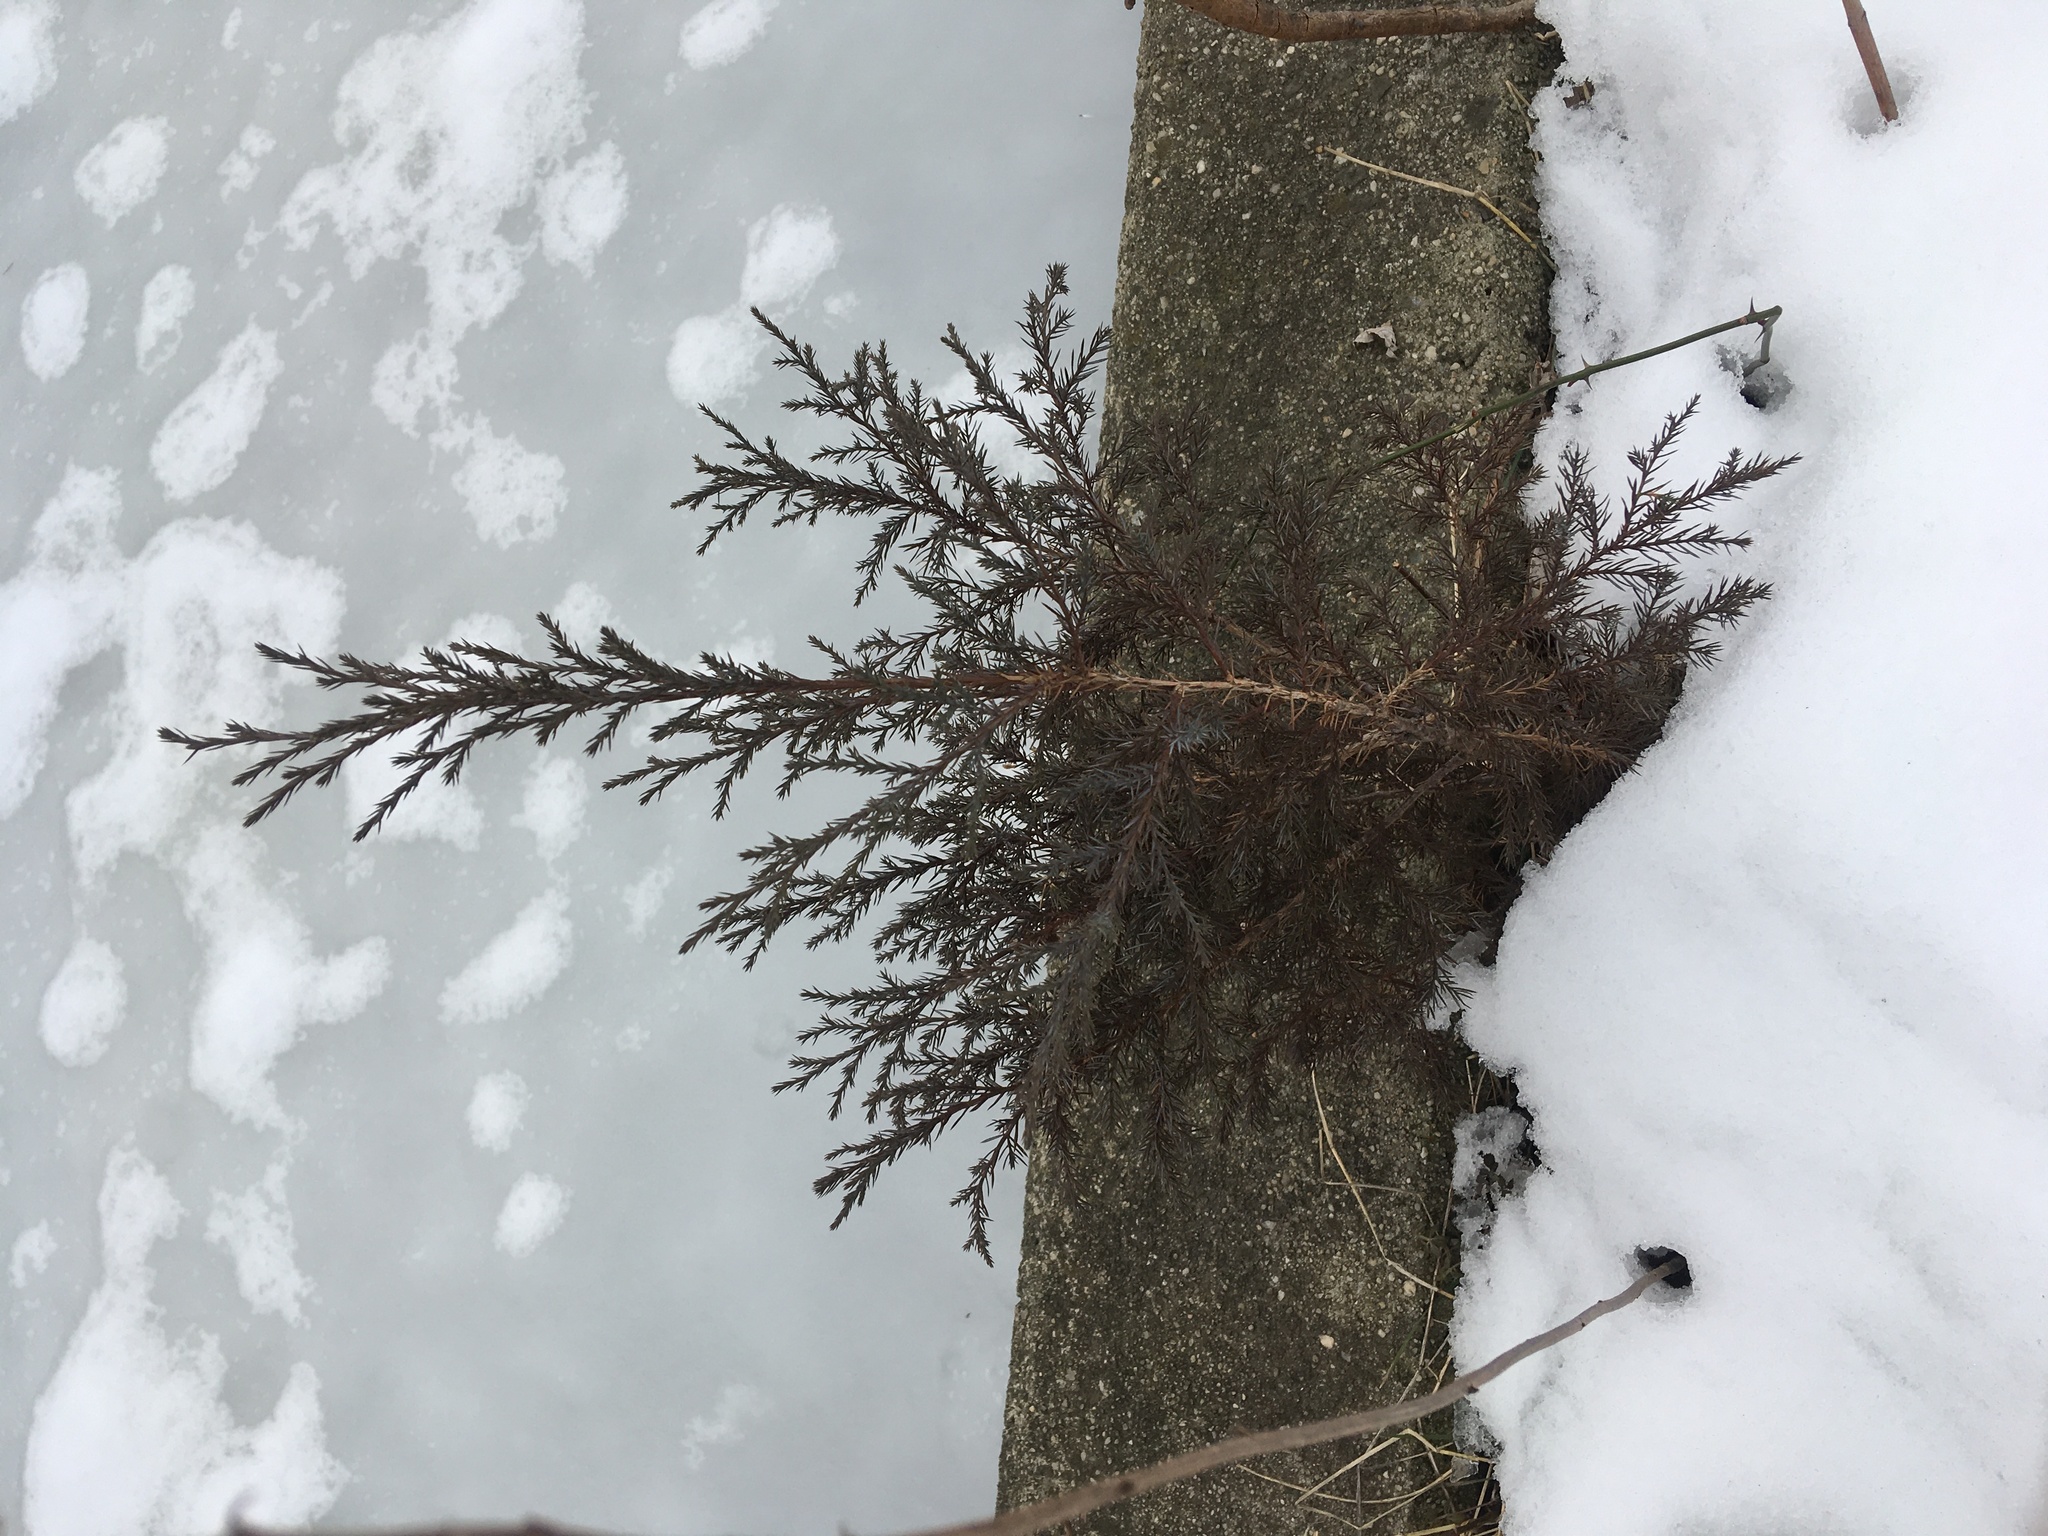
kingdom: Plantae
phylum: Tracheophyta
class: Pinopsida
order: Pinales
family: Cupressaceae
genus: Juniperus
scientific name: Juniperus virginiana
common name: Red juniper
